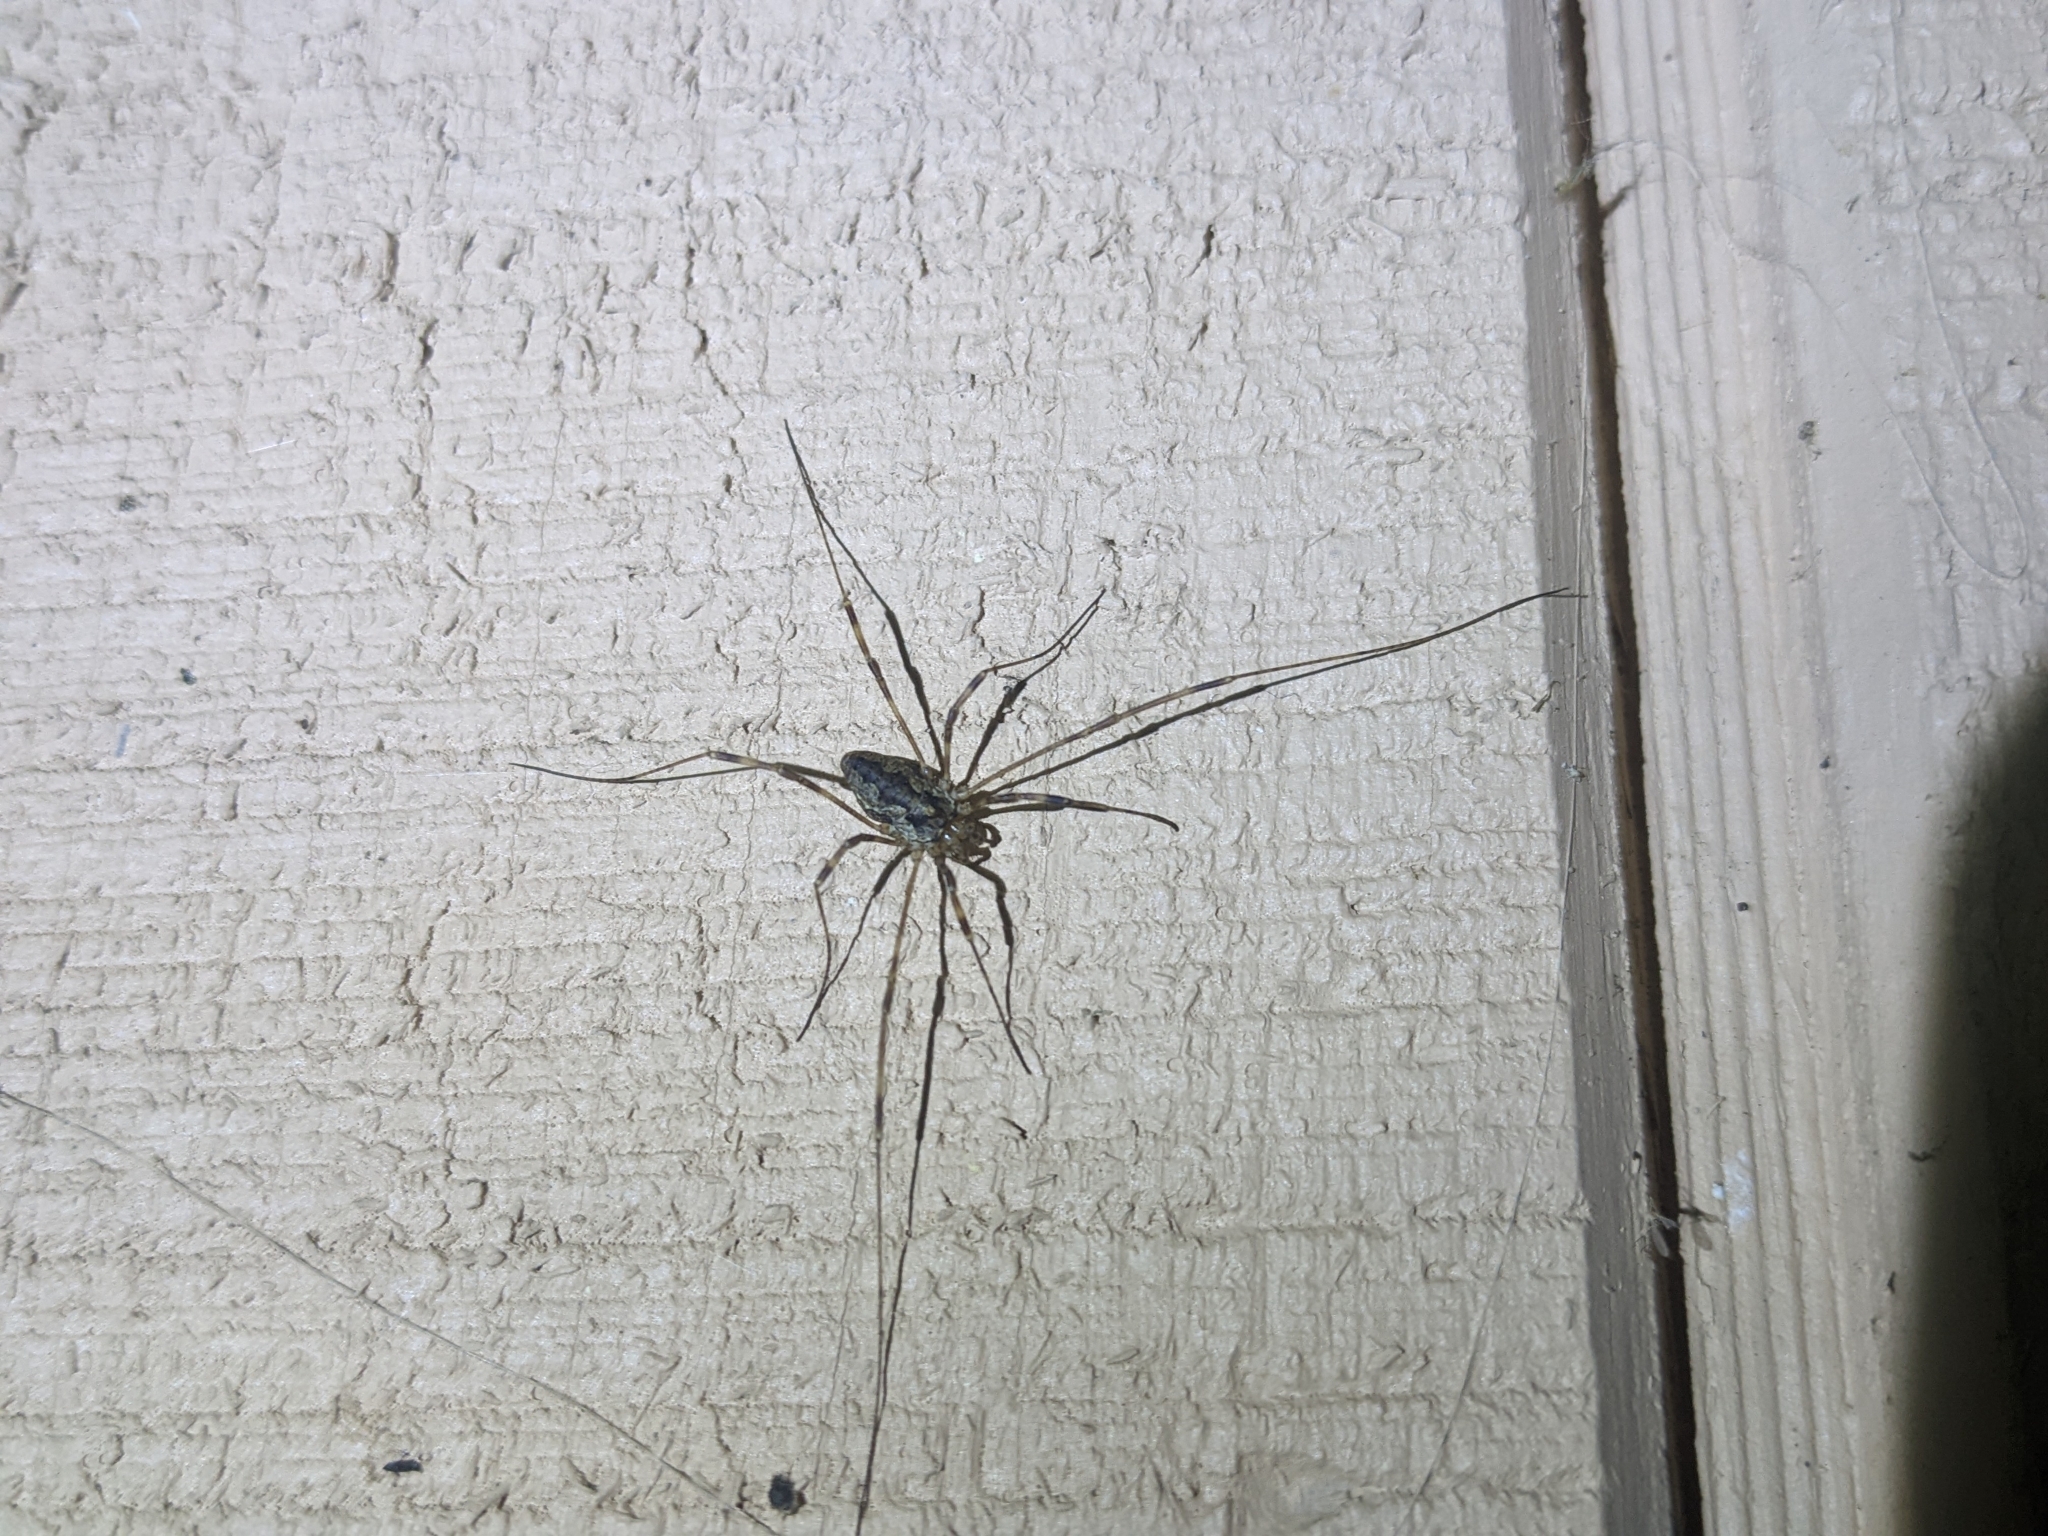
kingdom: Animalia
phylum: Arthropoda
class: Arachnida
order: Opiliones
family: Phalangiidae
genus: Odiellus
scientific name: Odiellus pictus
